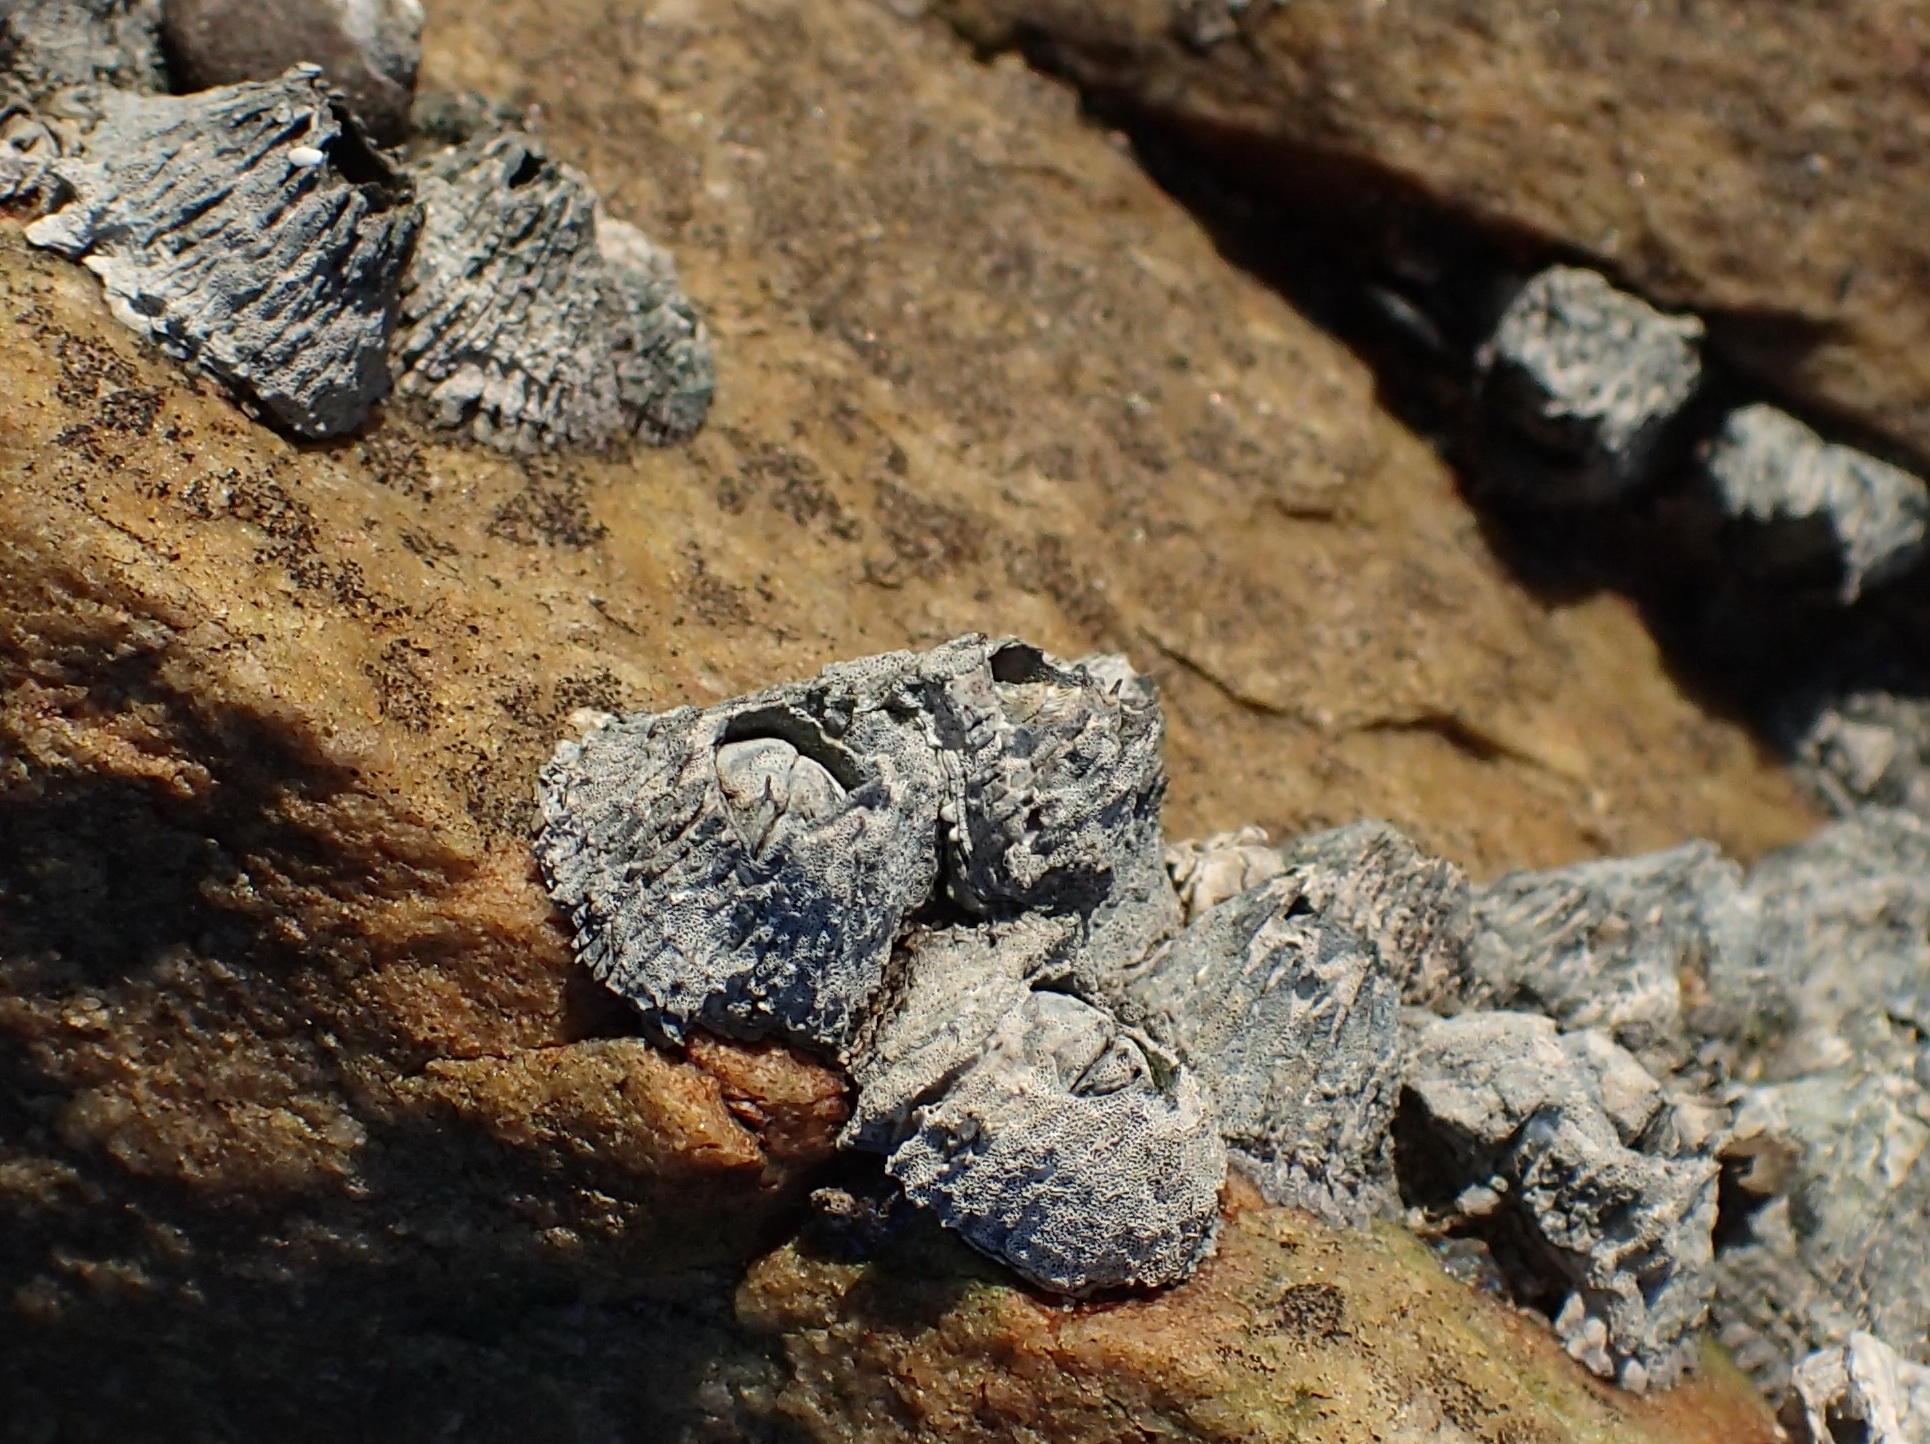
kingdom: Animalia
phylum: Arthropoda
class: Maxillopoda
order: Sessilia
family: Tetraclitidae
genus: Tetraclita
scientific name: Tetraclita serrata
